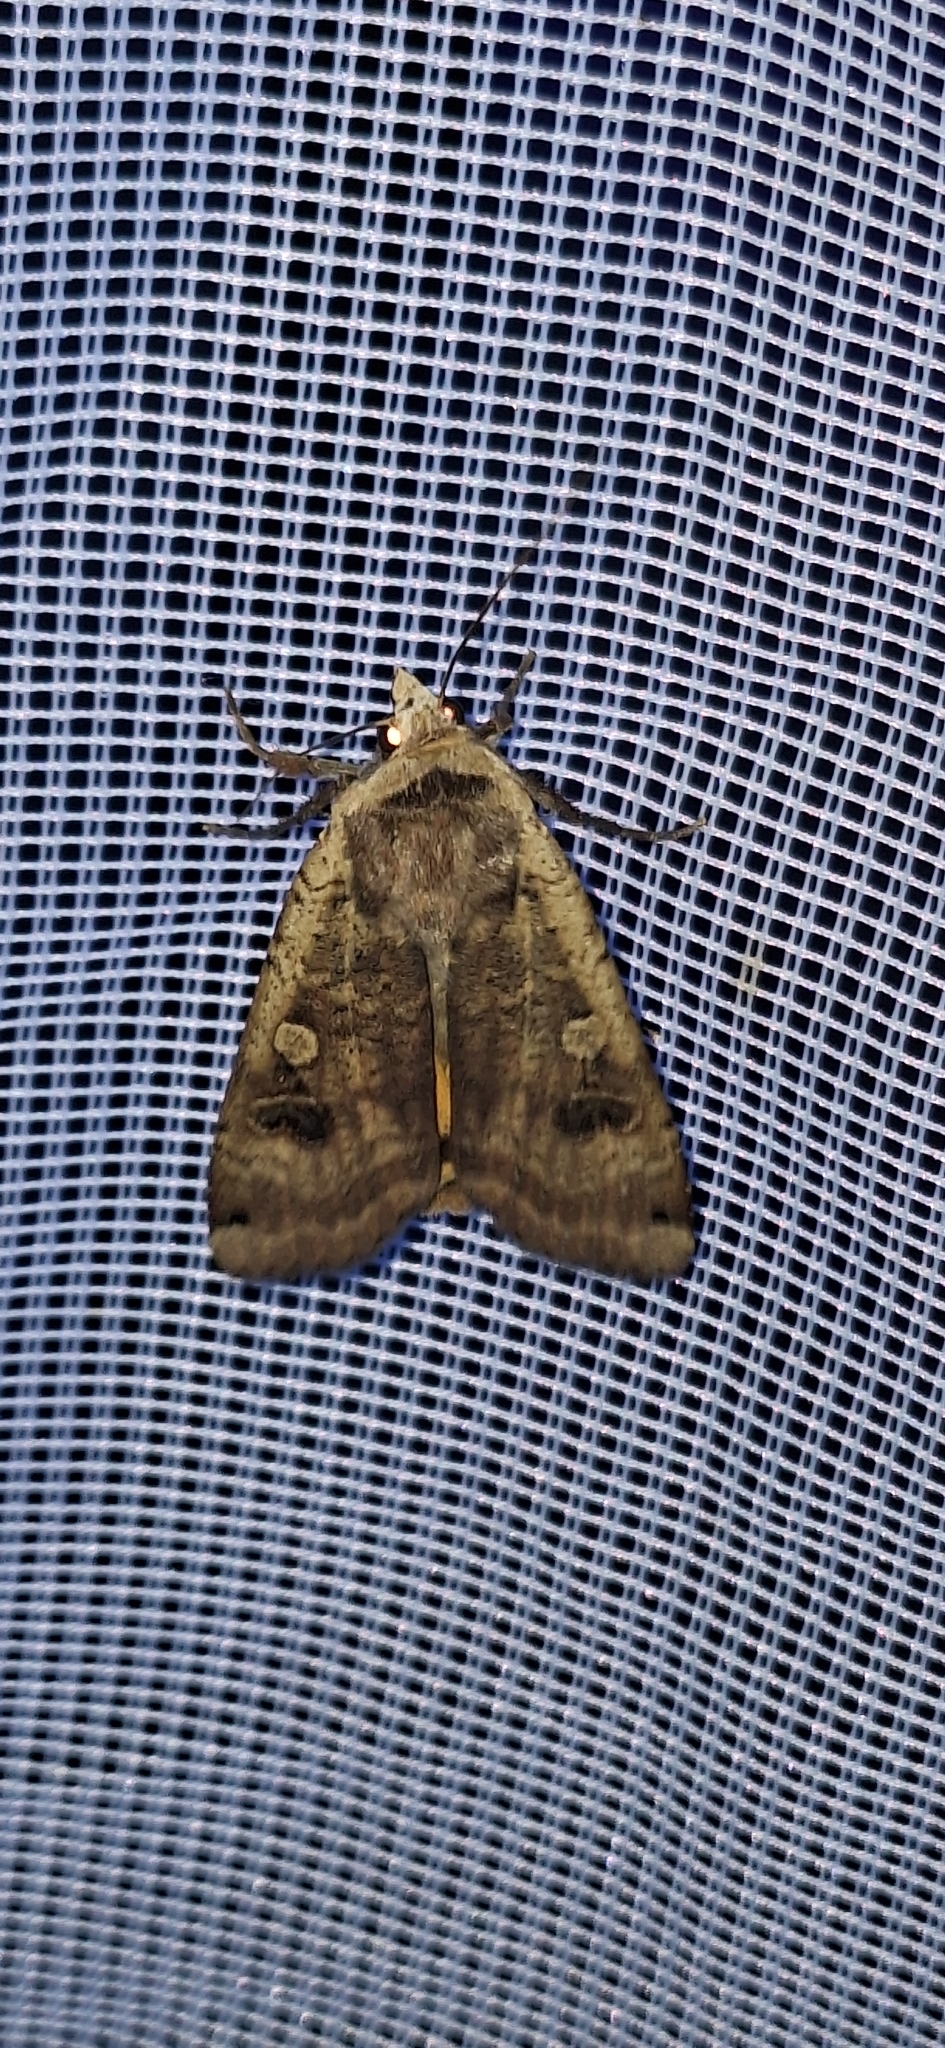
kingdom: Animalia
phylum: Arthropoda
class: Insecta
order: Lepidoptera
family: Noctuidae
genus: Noctua
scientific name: Noctua pronuba
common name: Large yellow underwing
